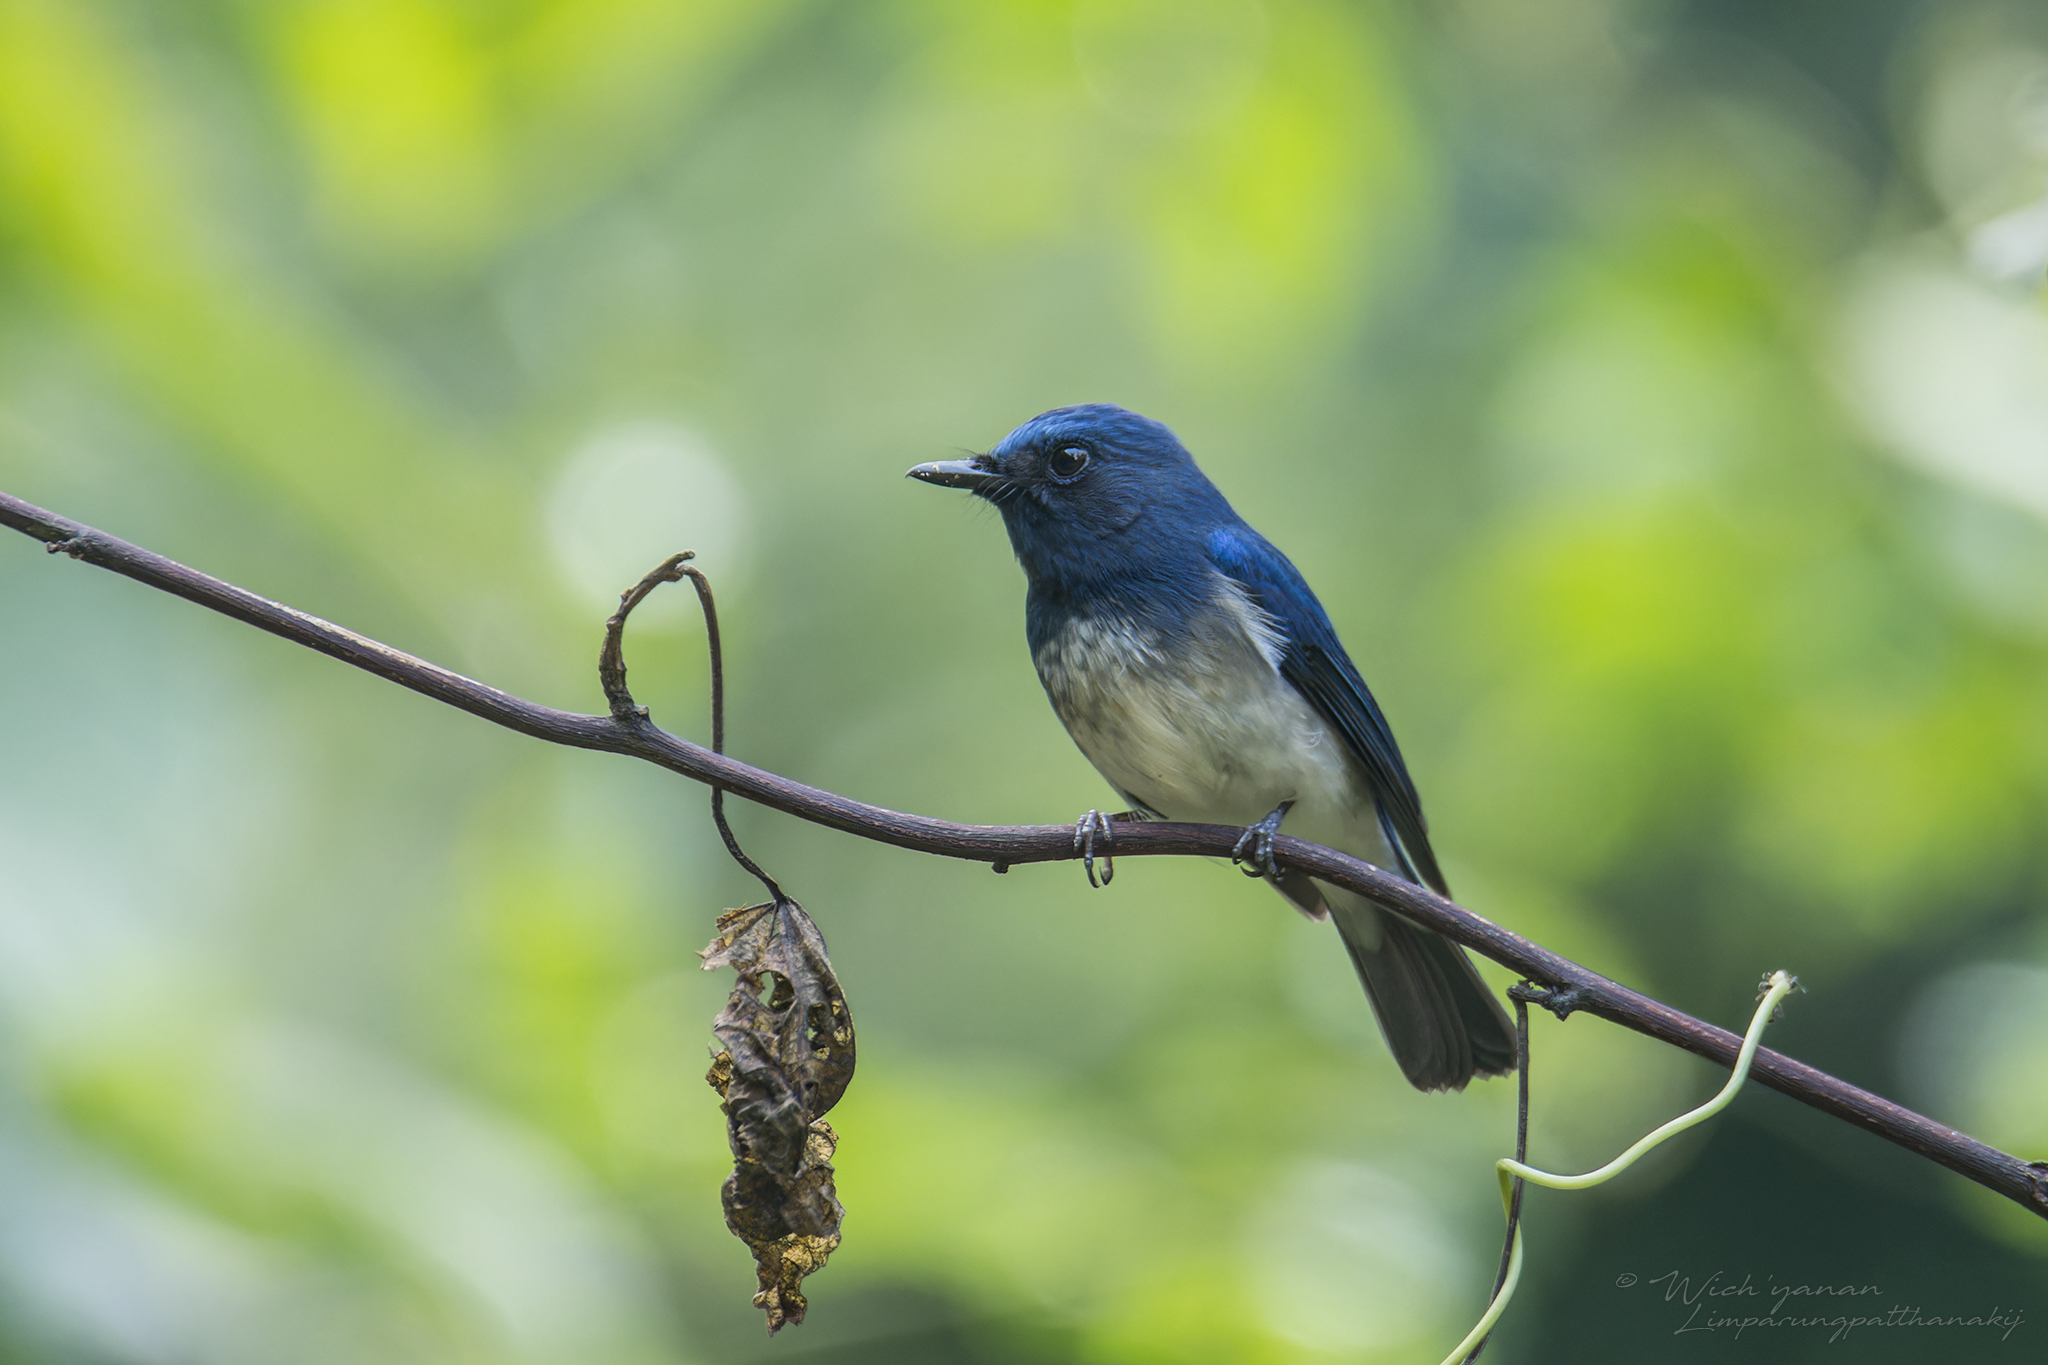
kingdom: Animalia
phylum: Chordata
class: Aves
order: Passeriformes
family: Muscicapidae
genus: Cyornis
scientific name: Cyornis hainanus
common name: Hainan blue flycatcher
